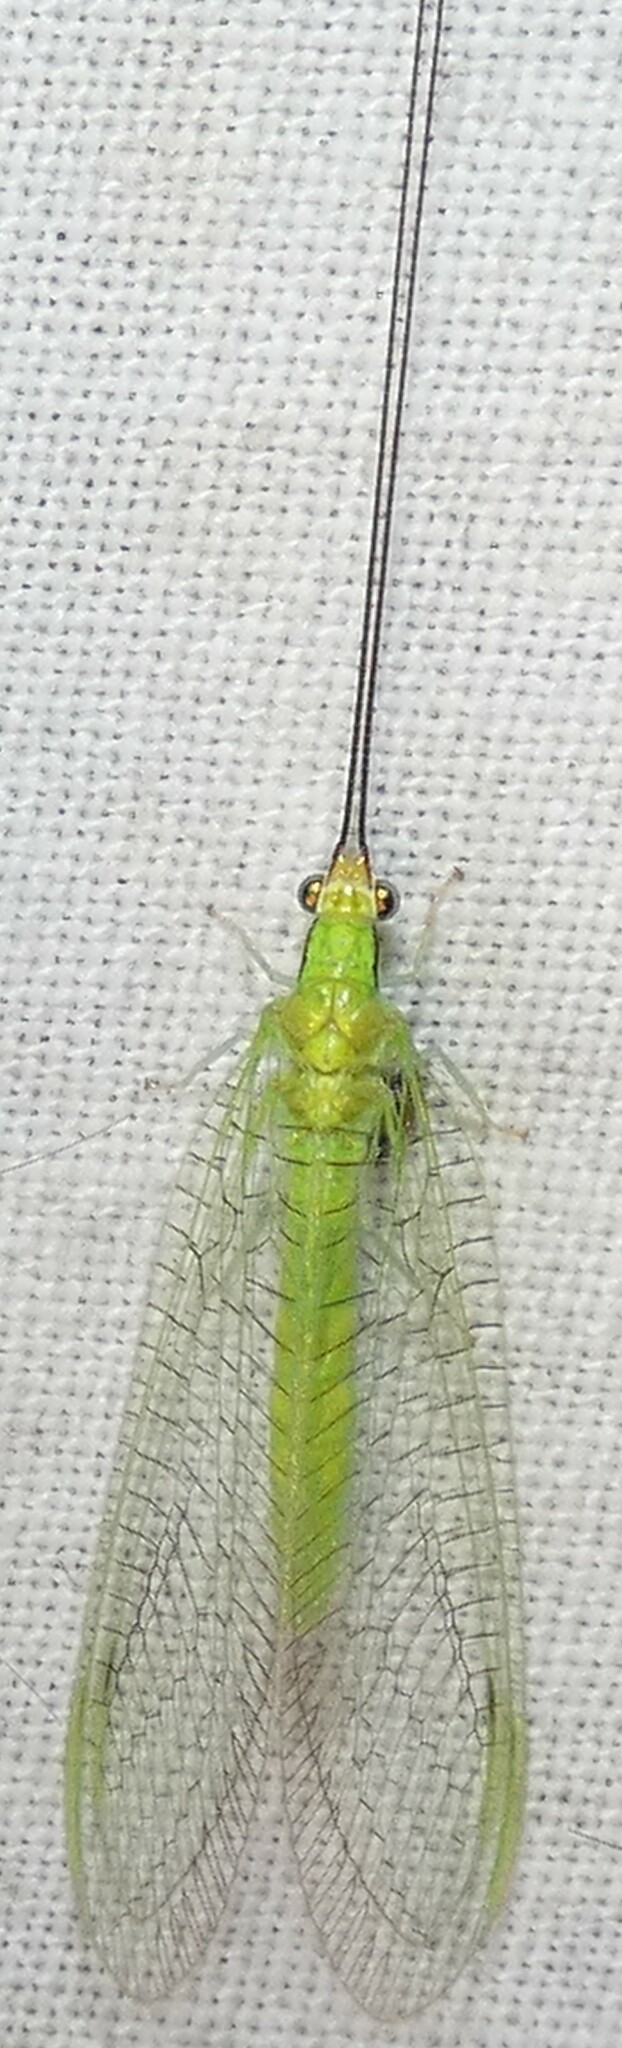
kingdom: Animalia
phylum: Arthropoda
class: Insecta
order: Neuroptera
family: Chrysopidae
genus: Leucochrysa
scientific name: Leucochrysa pavida
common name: Lichen-carrying green lacewing
